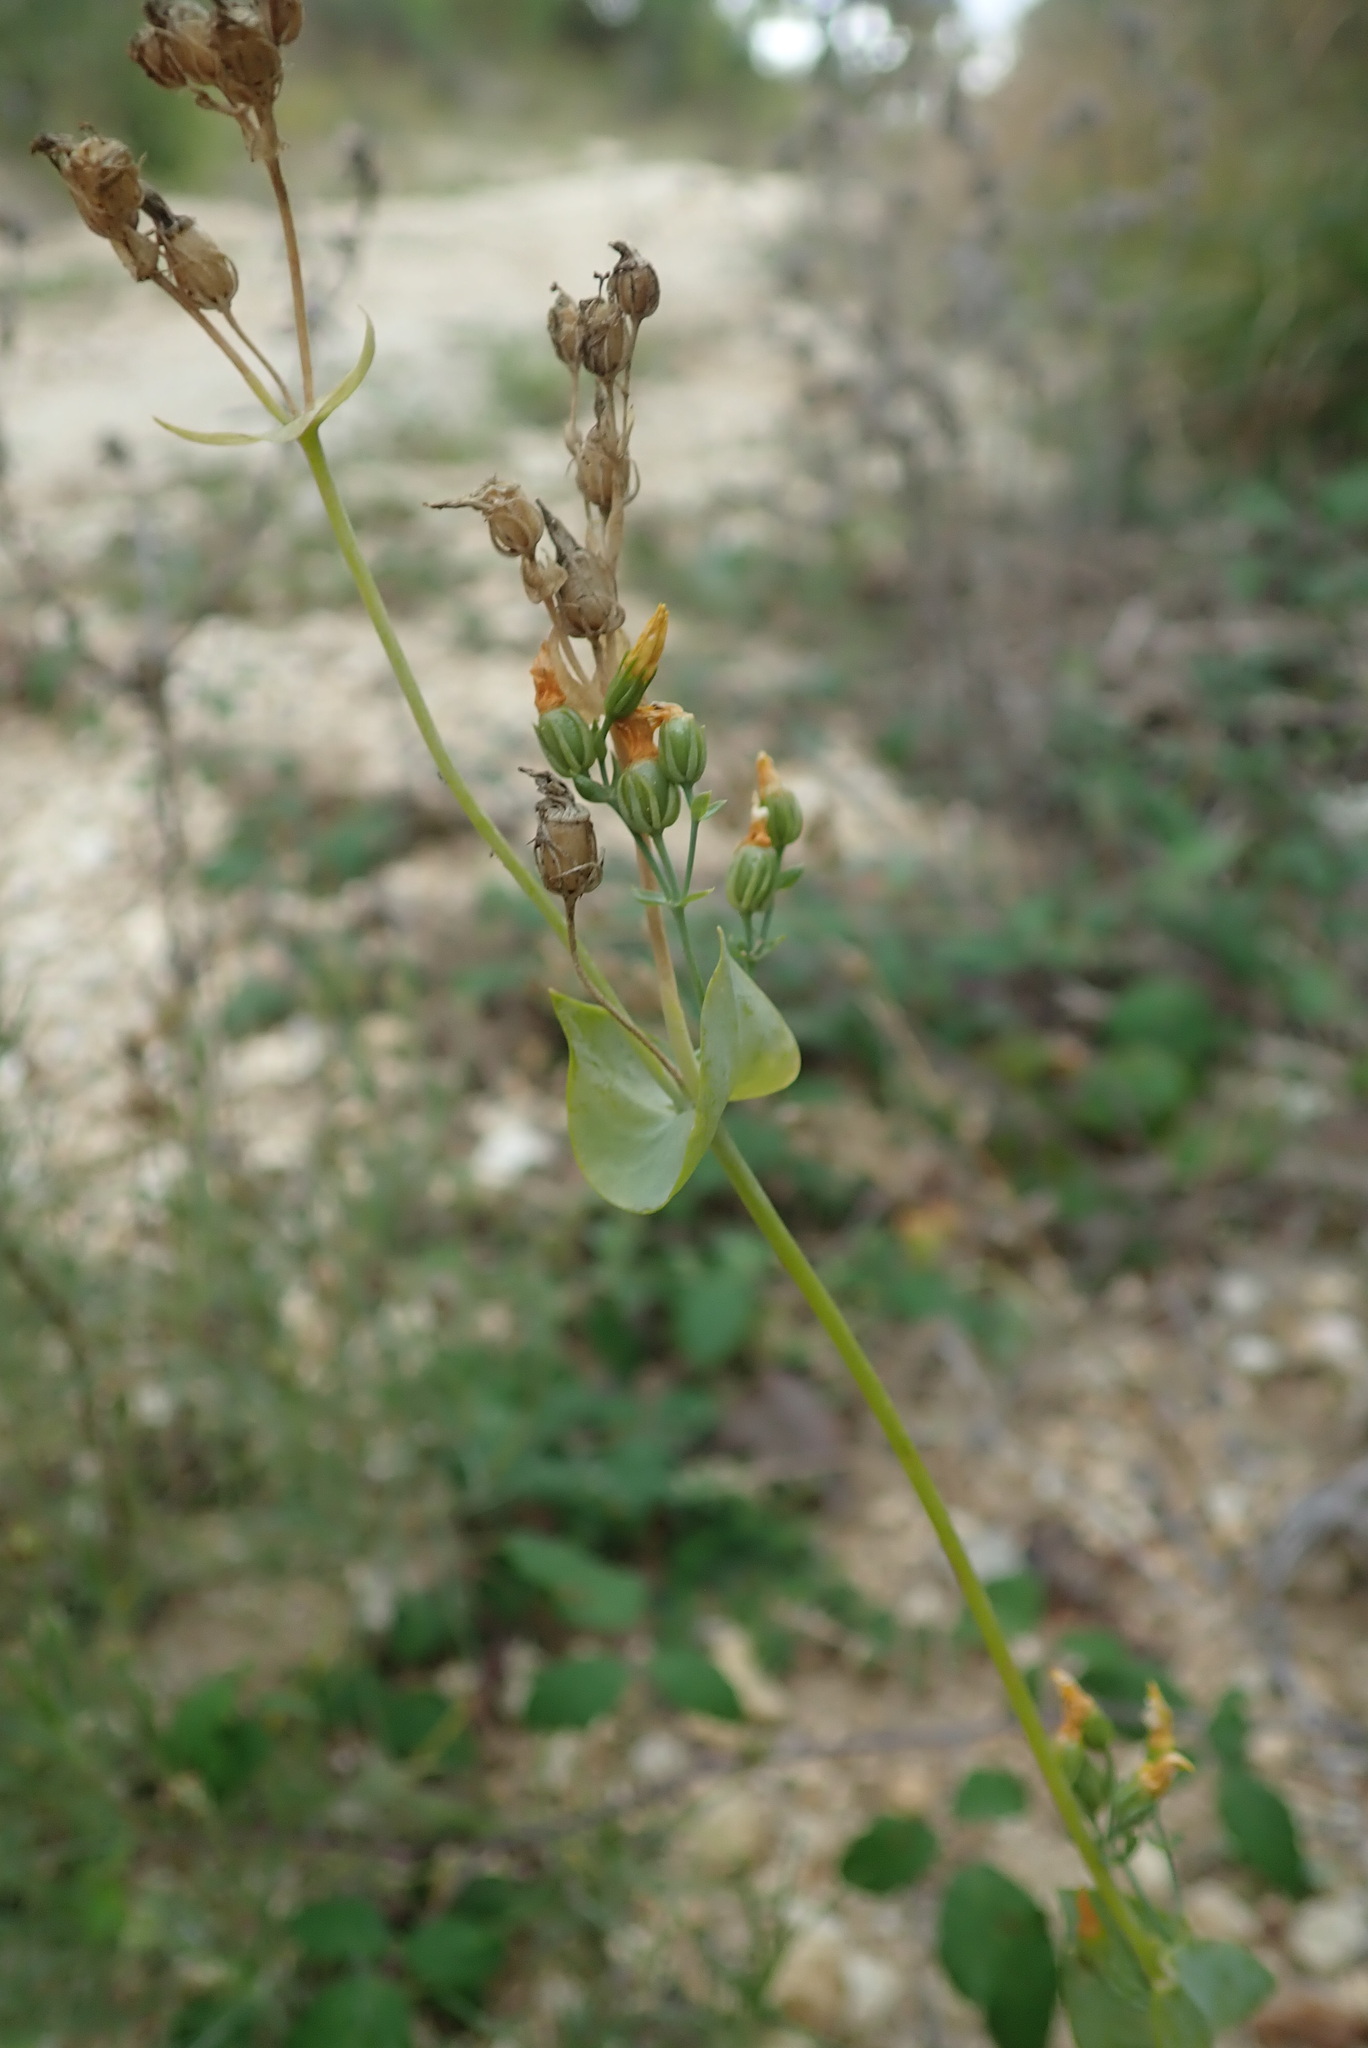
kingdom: Plantae
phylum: Tracheophyta
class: Magnoliopsida
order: Gentianales
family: Gentianaceae
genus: Blackstonia
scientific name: Blackstonia perfoliata
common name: Yellow-wort
